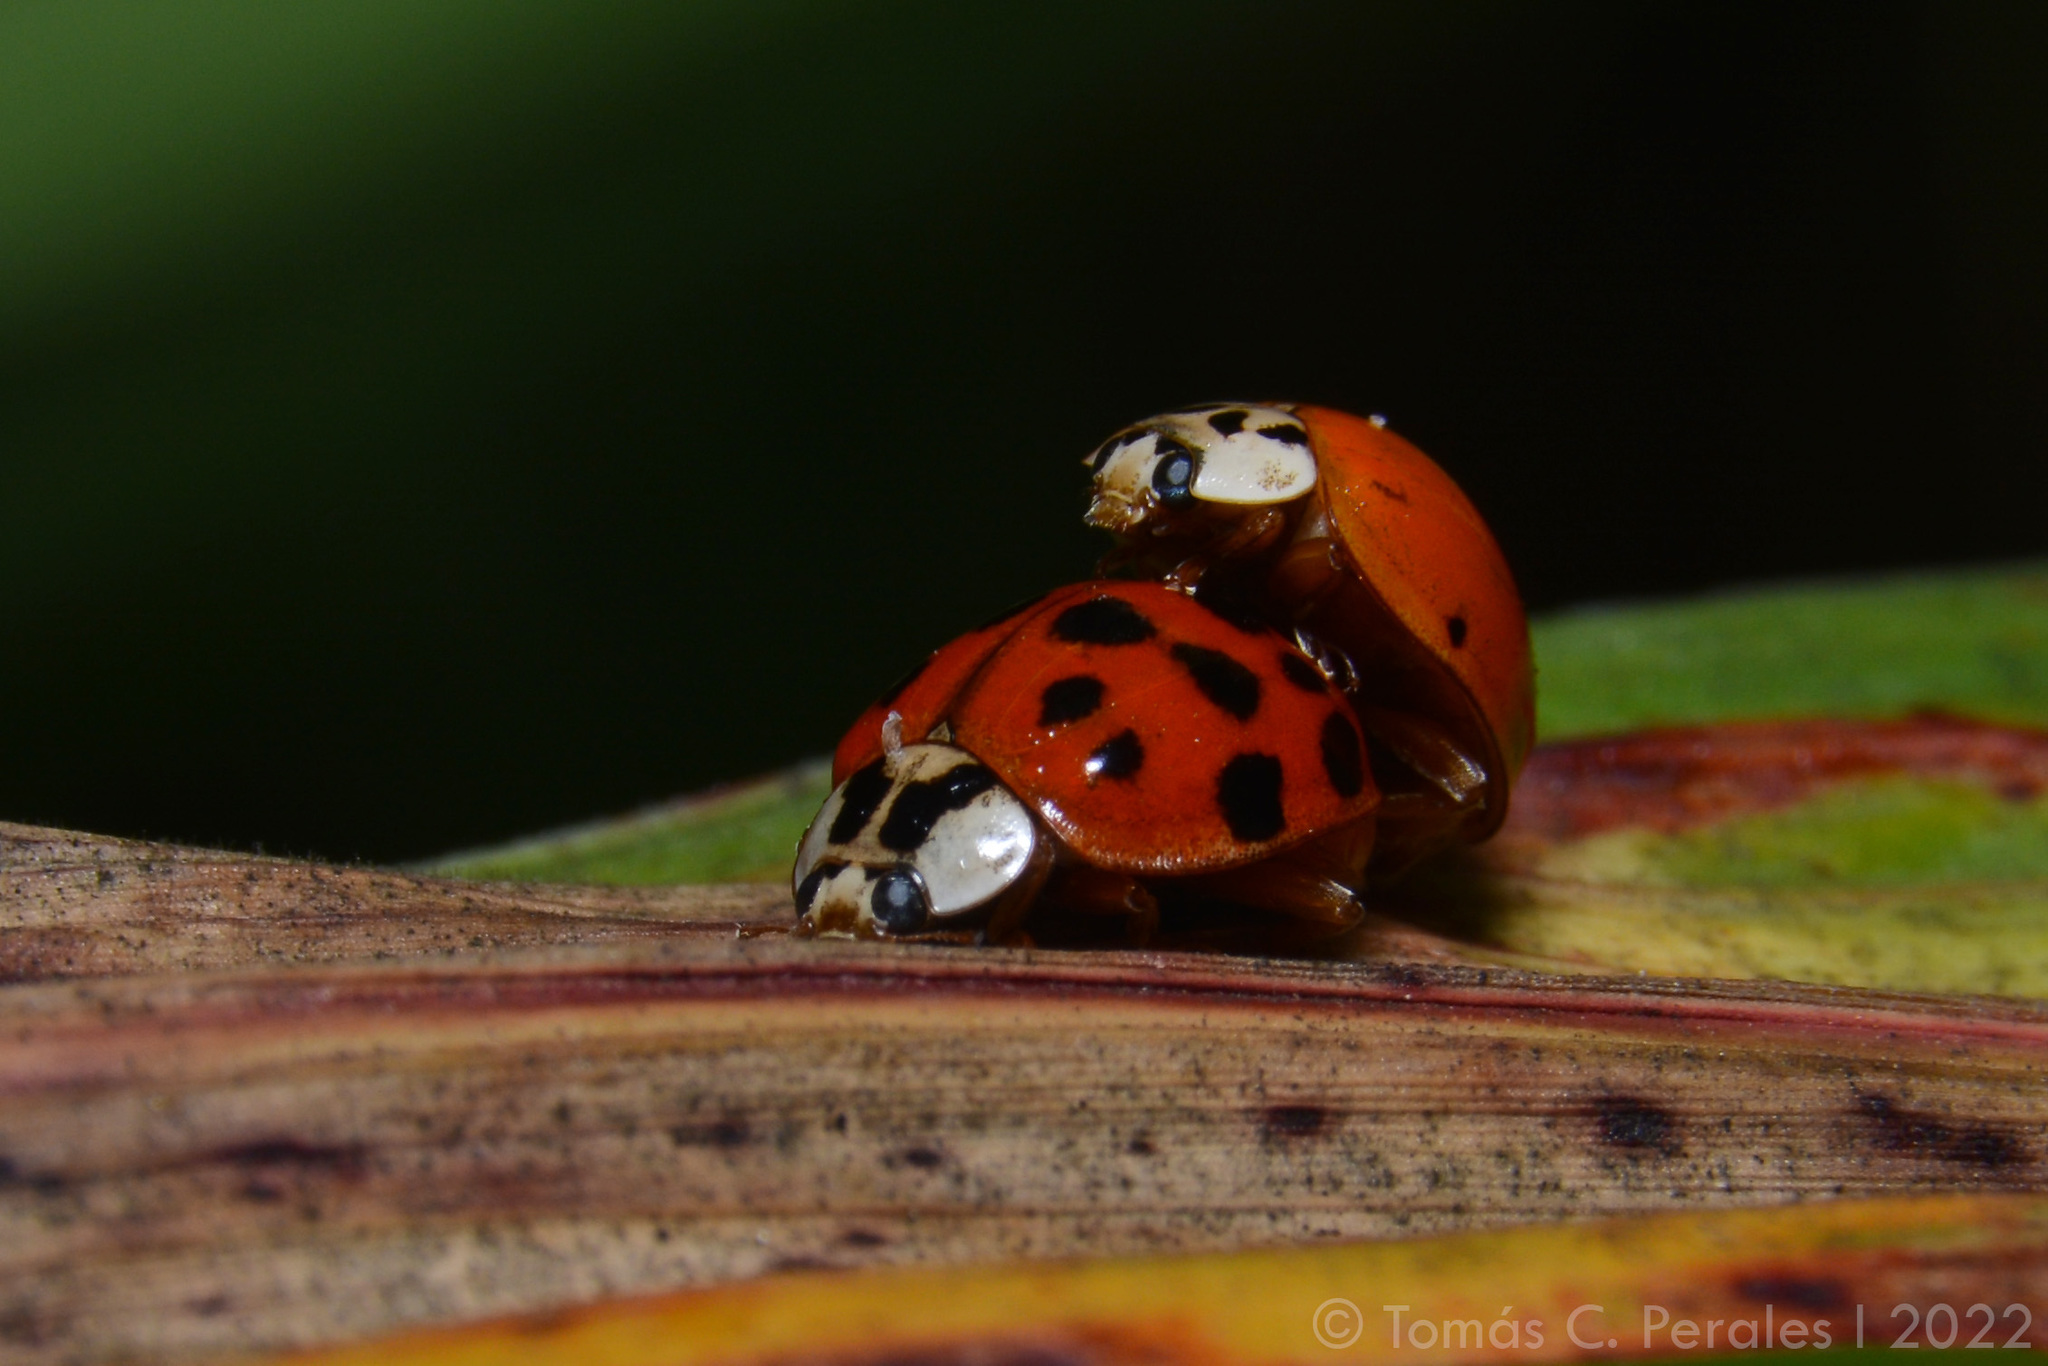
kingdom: Animalia
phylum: Arthropoda
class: Insecta
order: Coleoptera
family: Coccinellidae
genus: Harmonia
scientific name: Harmonia axyridis
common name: Harlequin ladybird
